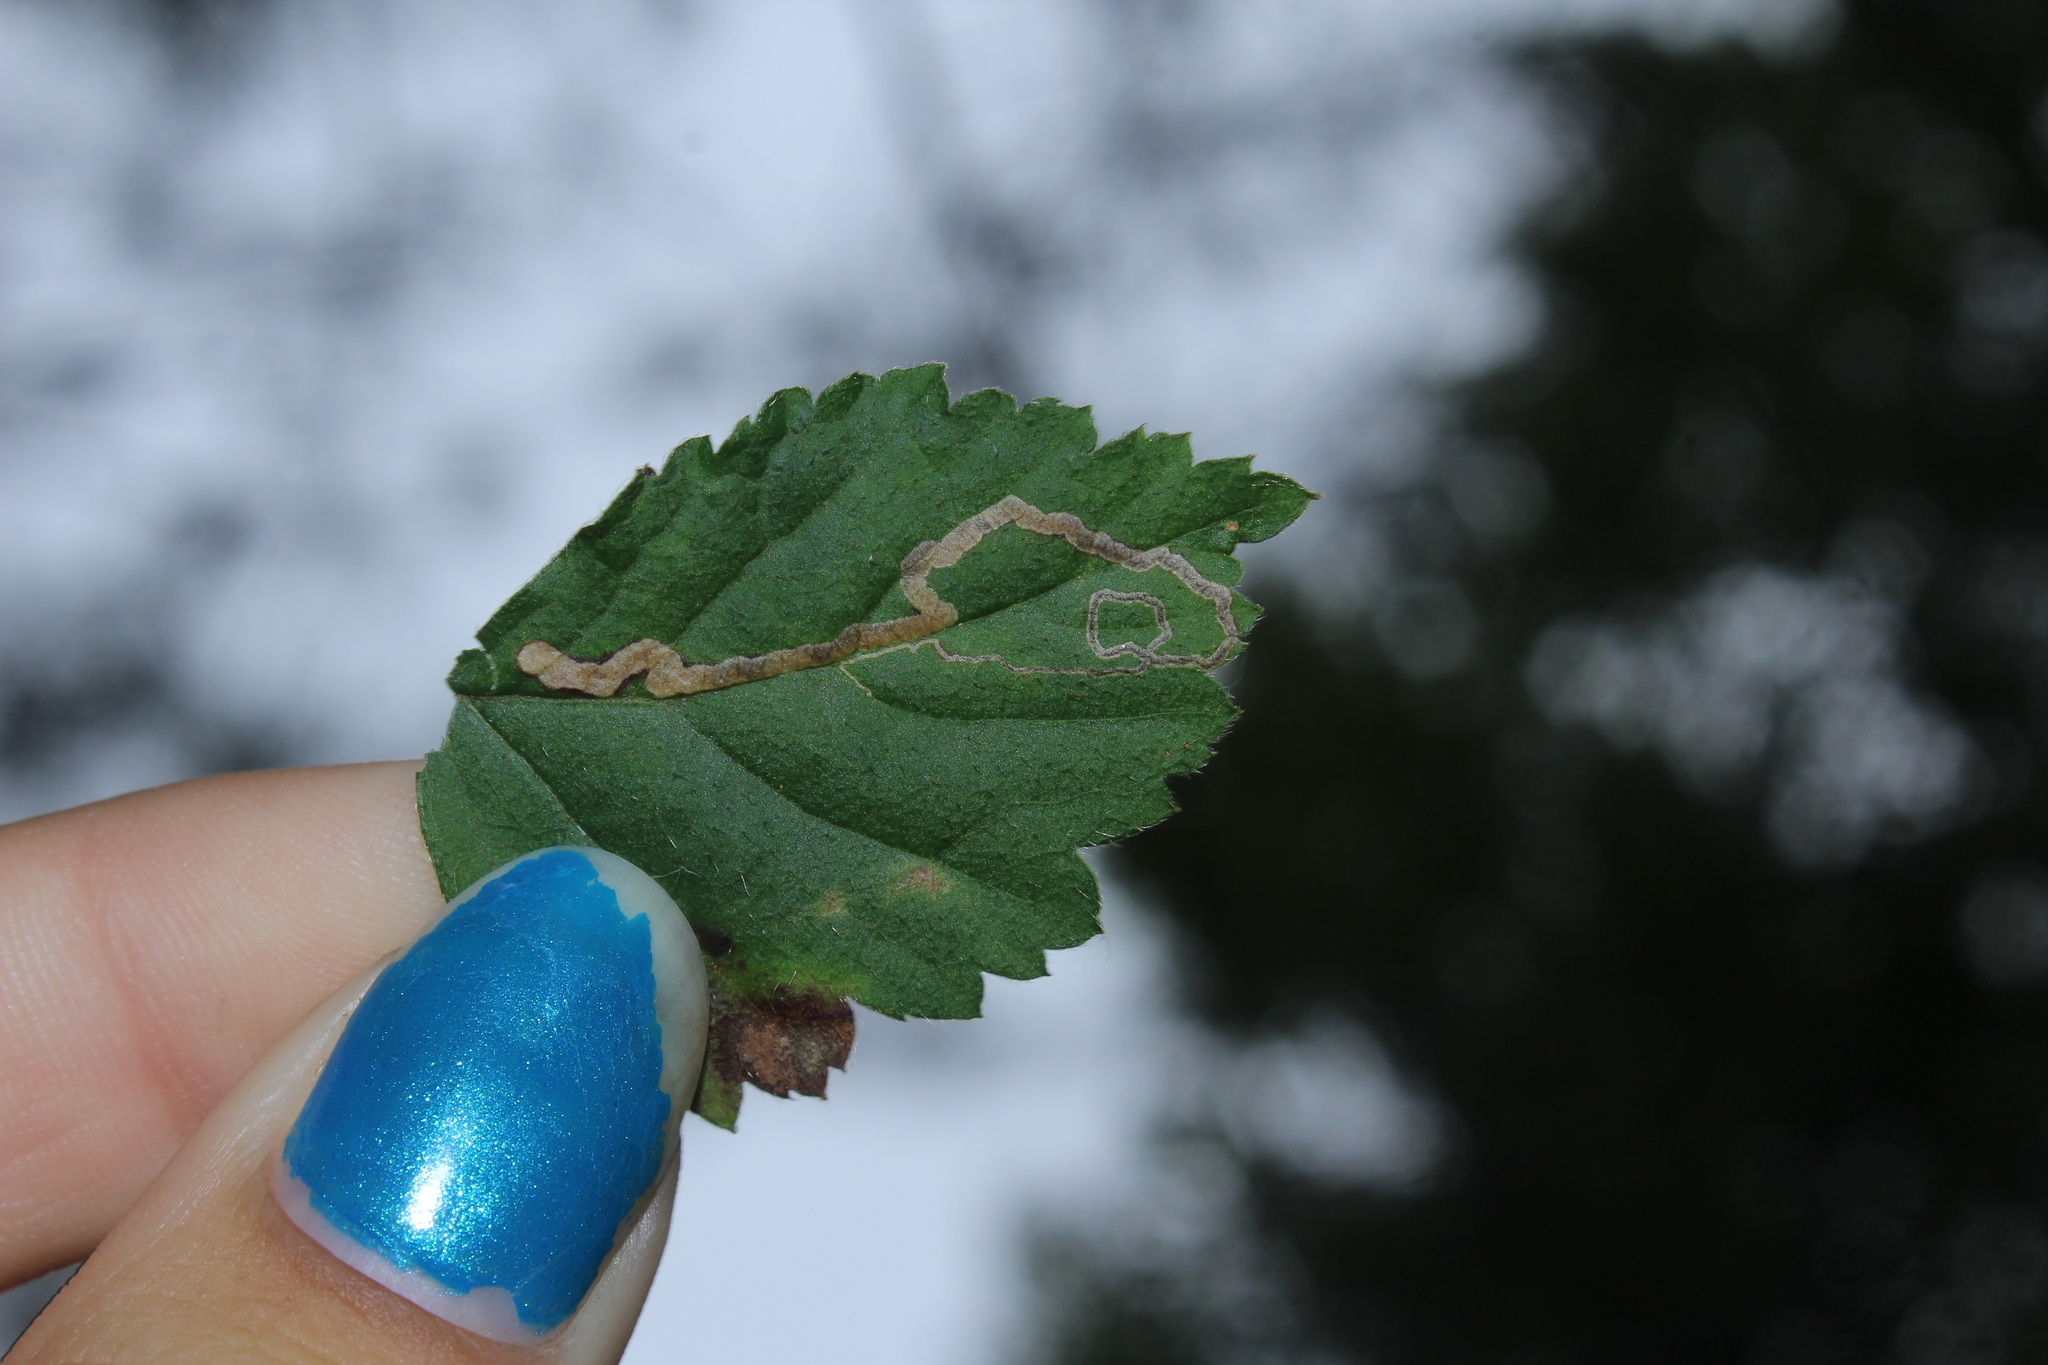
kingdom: Animalia
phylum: Arthropoda
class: Insecta
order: Lepidoptera
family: Nepticulidae
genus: Stigmella
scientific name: Stigmella villosella
